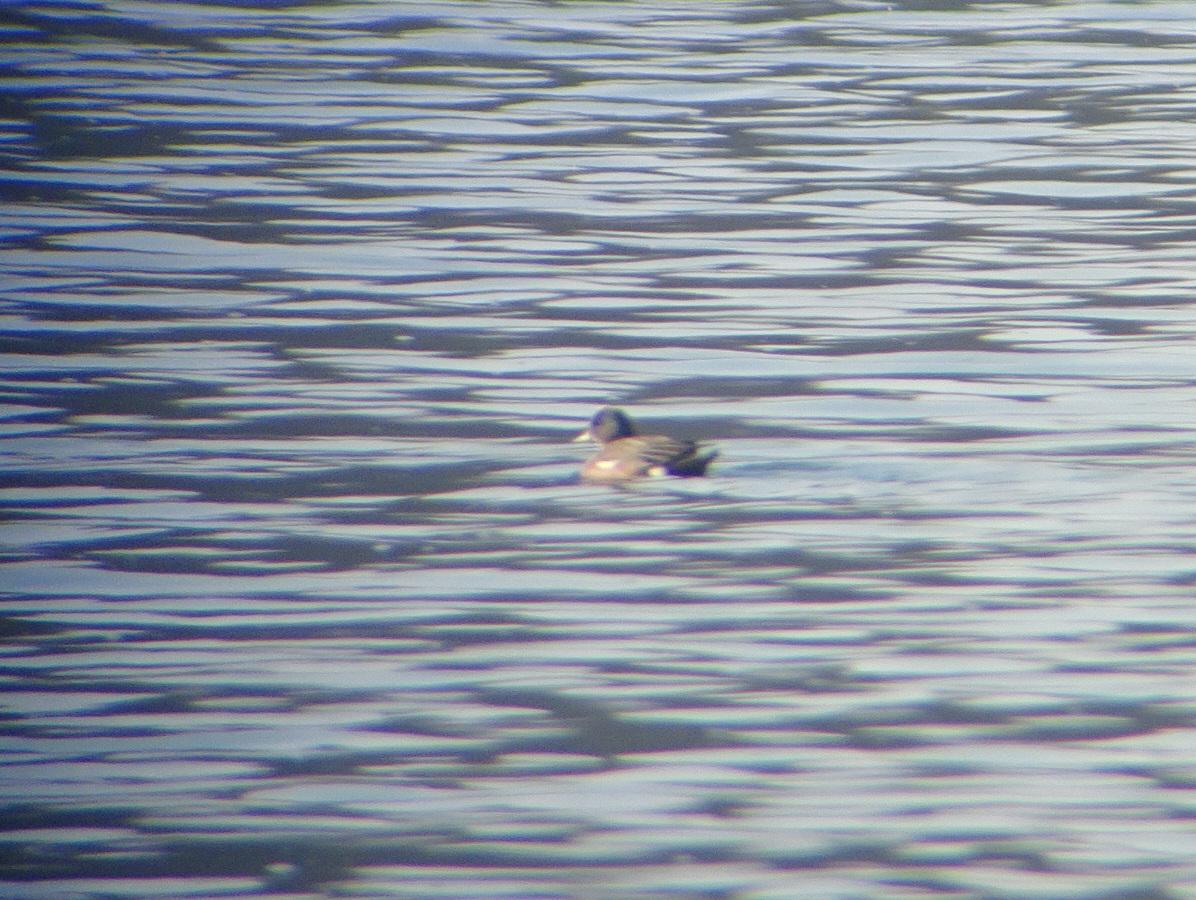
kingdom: Animalia
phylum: Chordata
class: Aves
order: Anseriformes
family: Anatidae
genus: Mareca
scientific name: Mareca americana
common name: American wigeon
